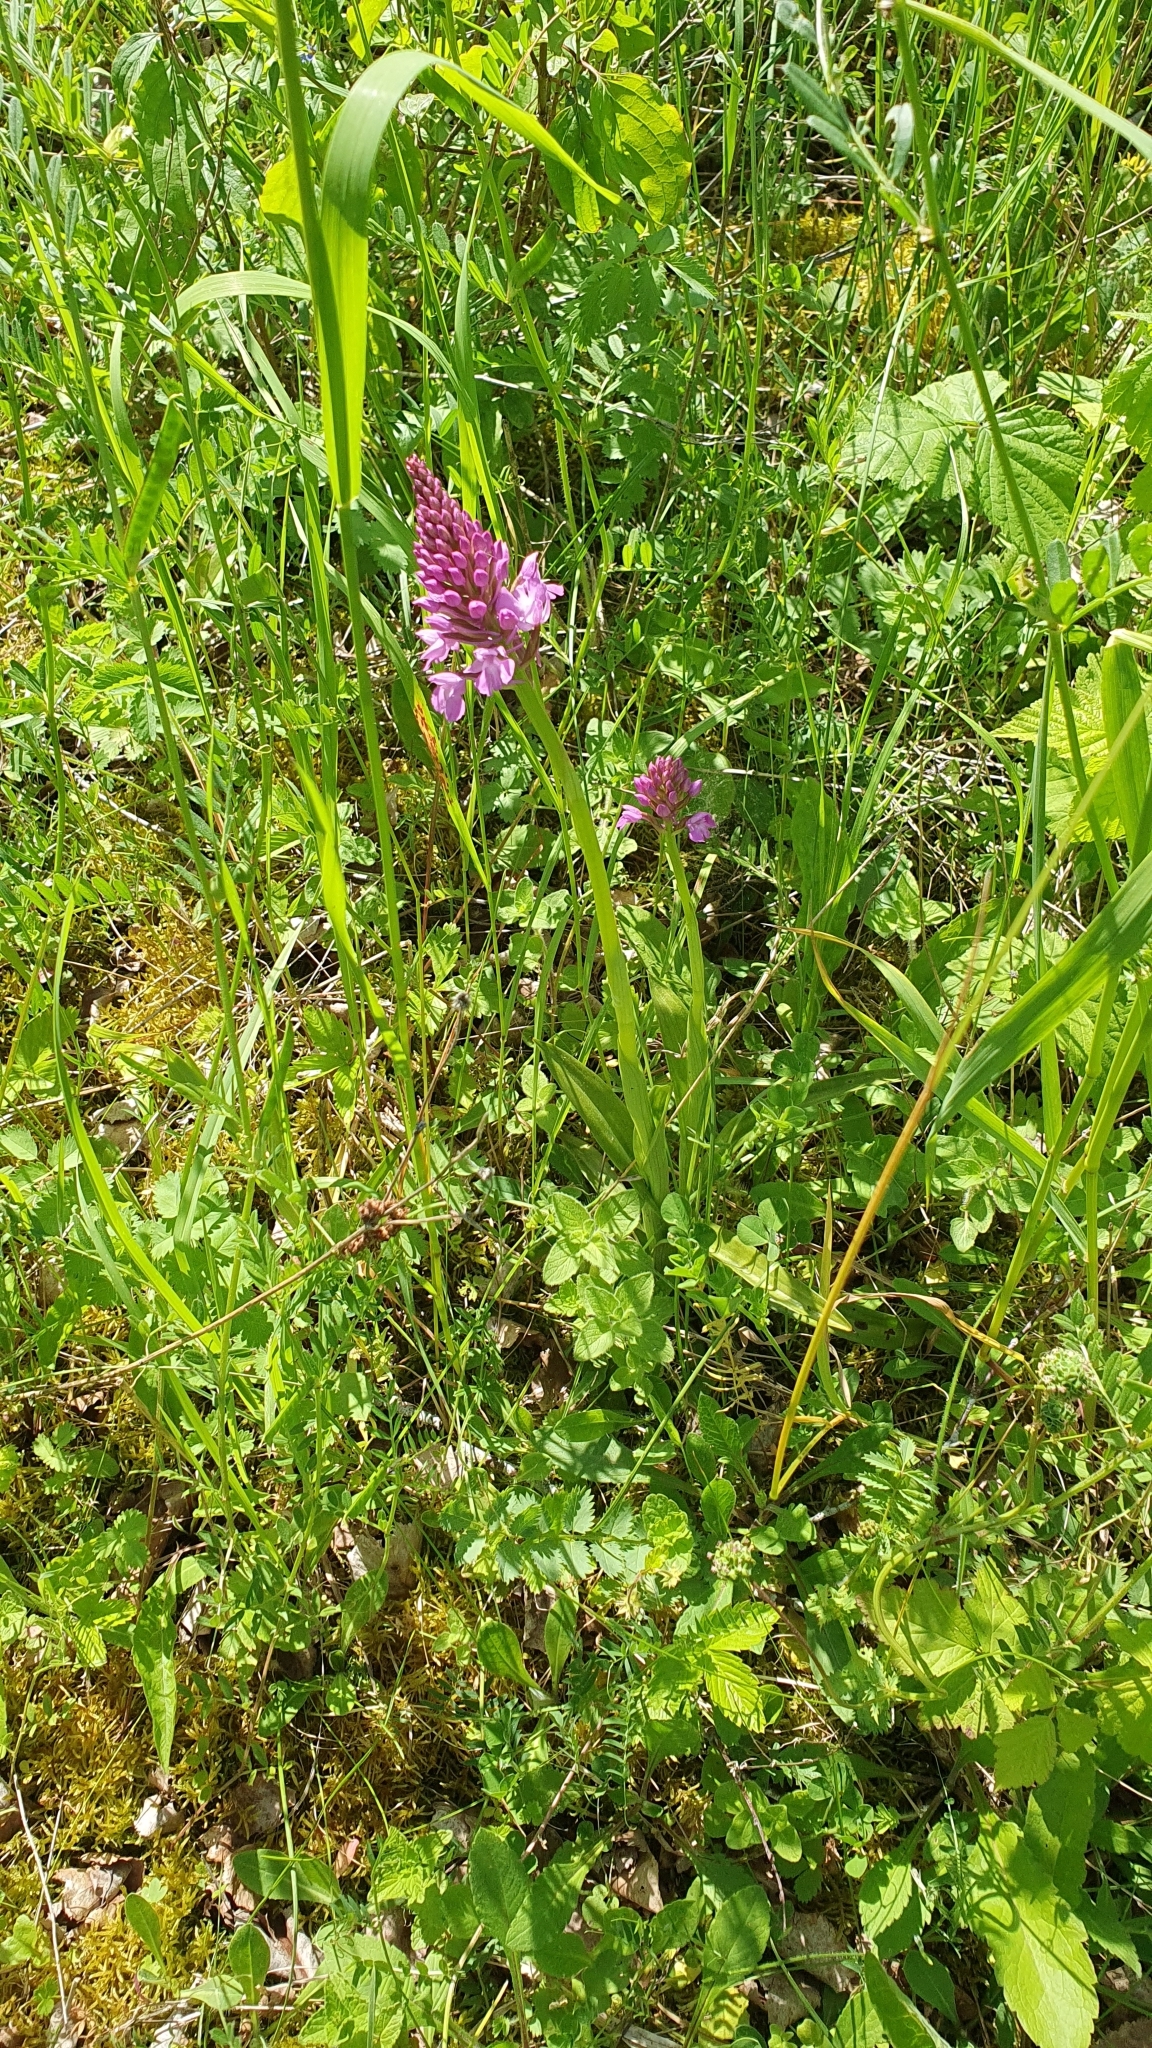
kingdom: Plantae
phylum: Tracheophyta
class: Liliopsida
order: Asparagales
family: Orchidaceae
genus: Anacamptis
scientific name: Anacamptis pyramidalis
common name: Pyramidal orchid
